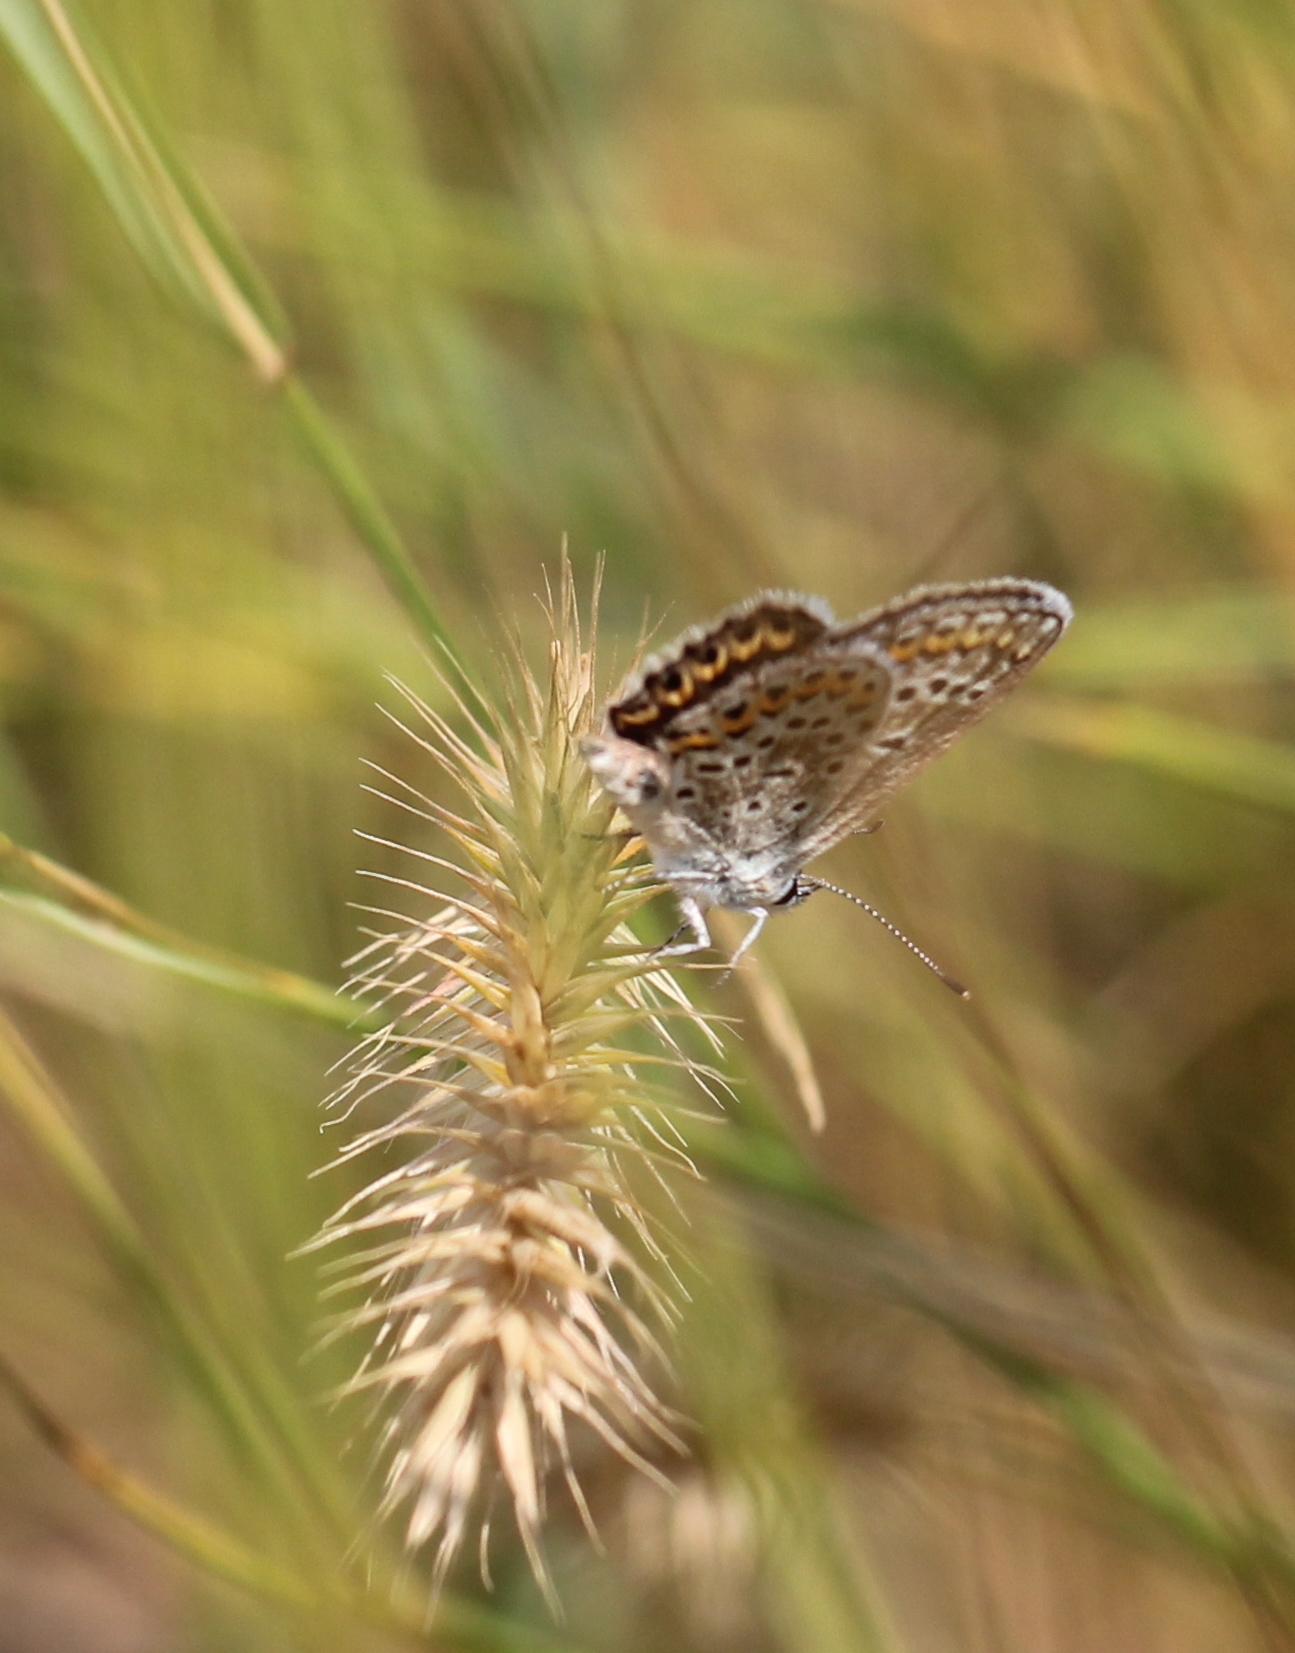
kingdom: Animalia
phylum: Arthropoda
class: Insecta
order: Lepidoptera
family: Lycaenidae
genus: Plebejus
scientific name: Plebejus argus
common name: Silver-studded blue
